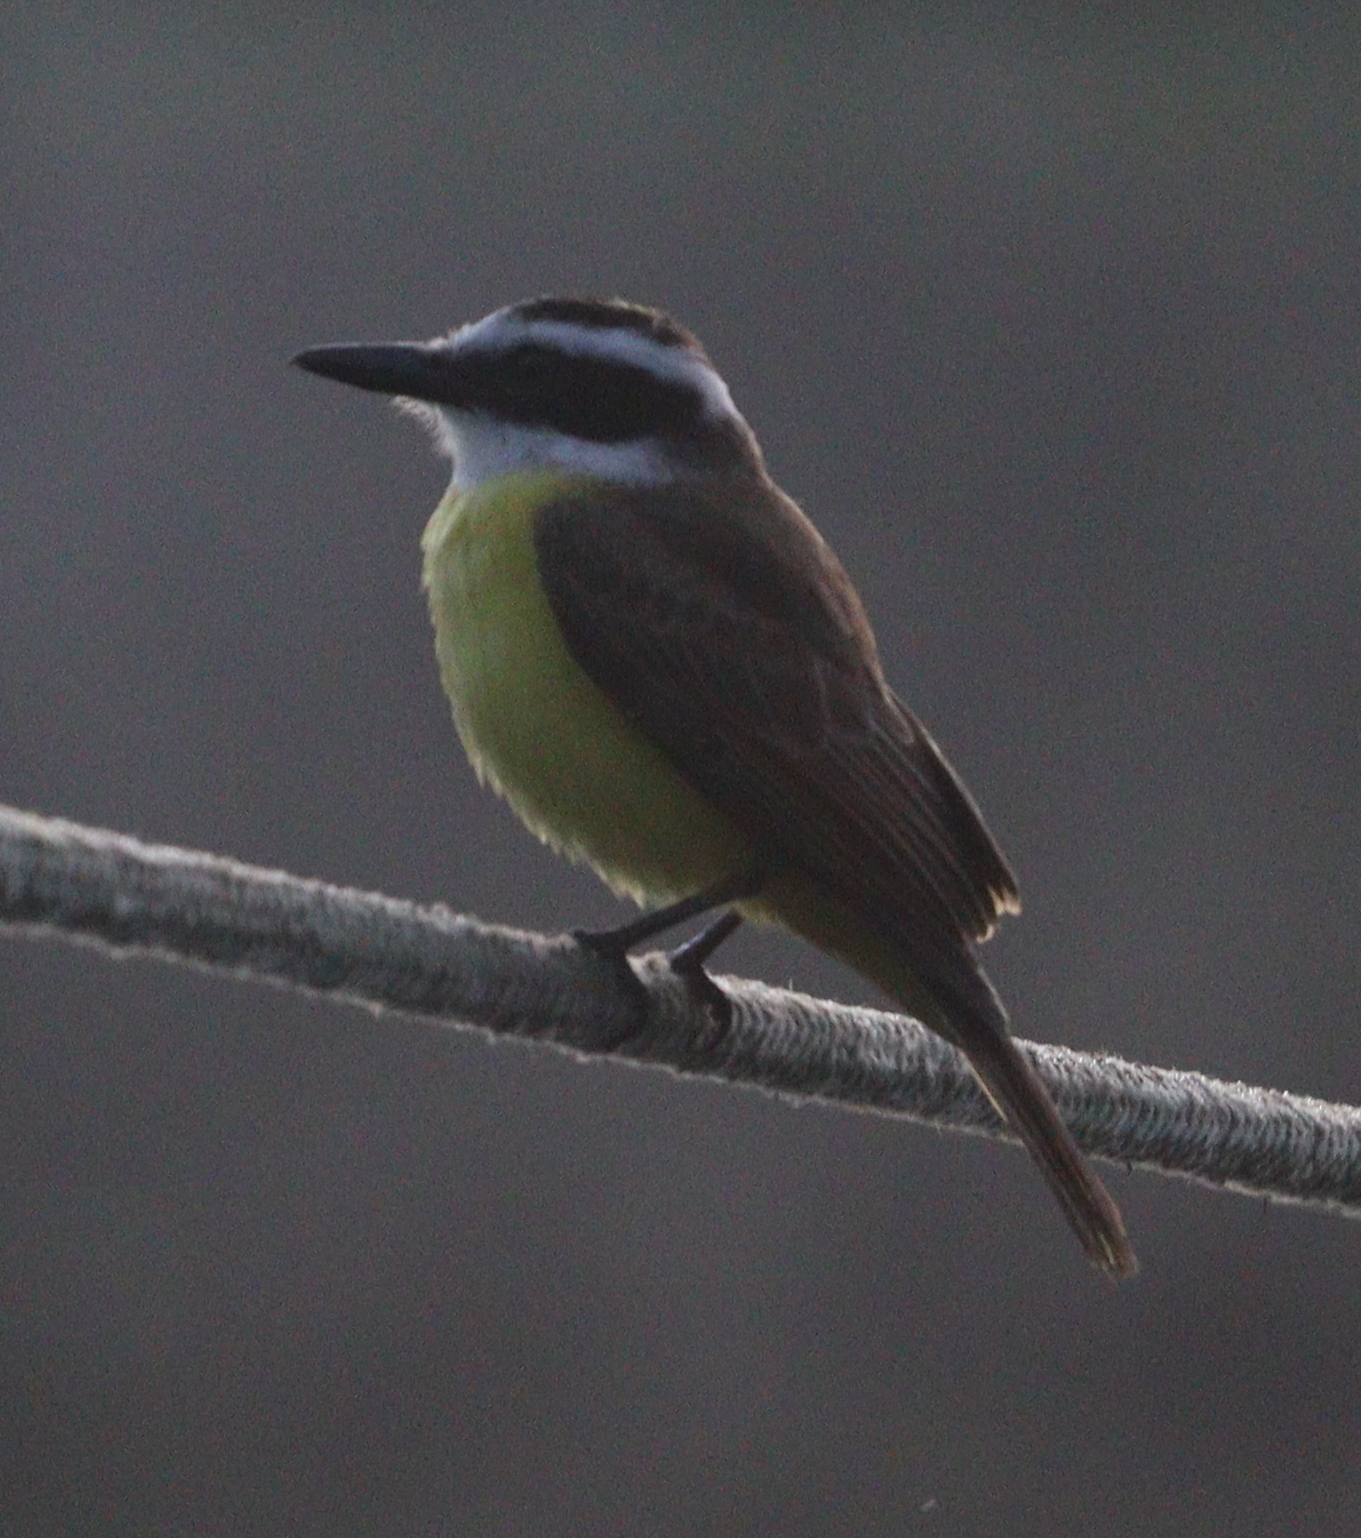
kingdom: Animalia
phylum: Chordata
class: Aves
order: Passeriformes
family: Tyrannidae
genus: Pitangus
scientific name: Pitangus sulphuratus
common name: Great kiskadee
